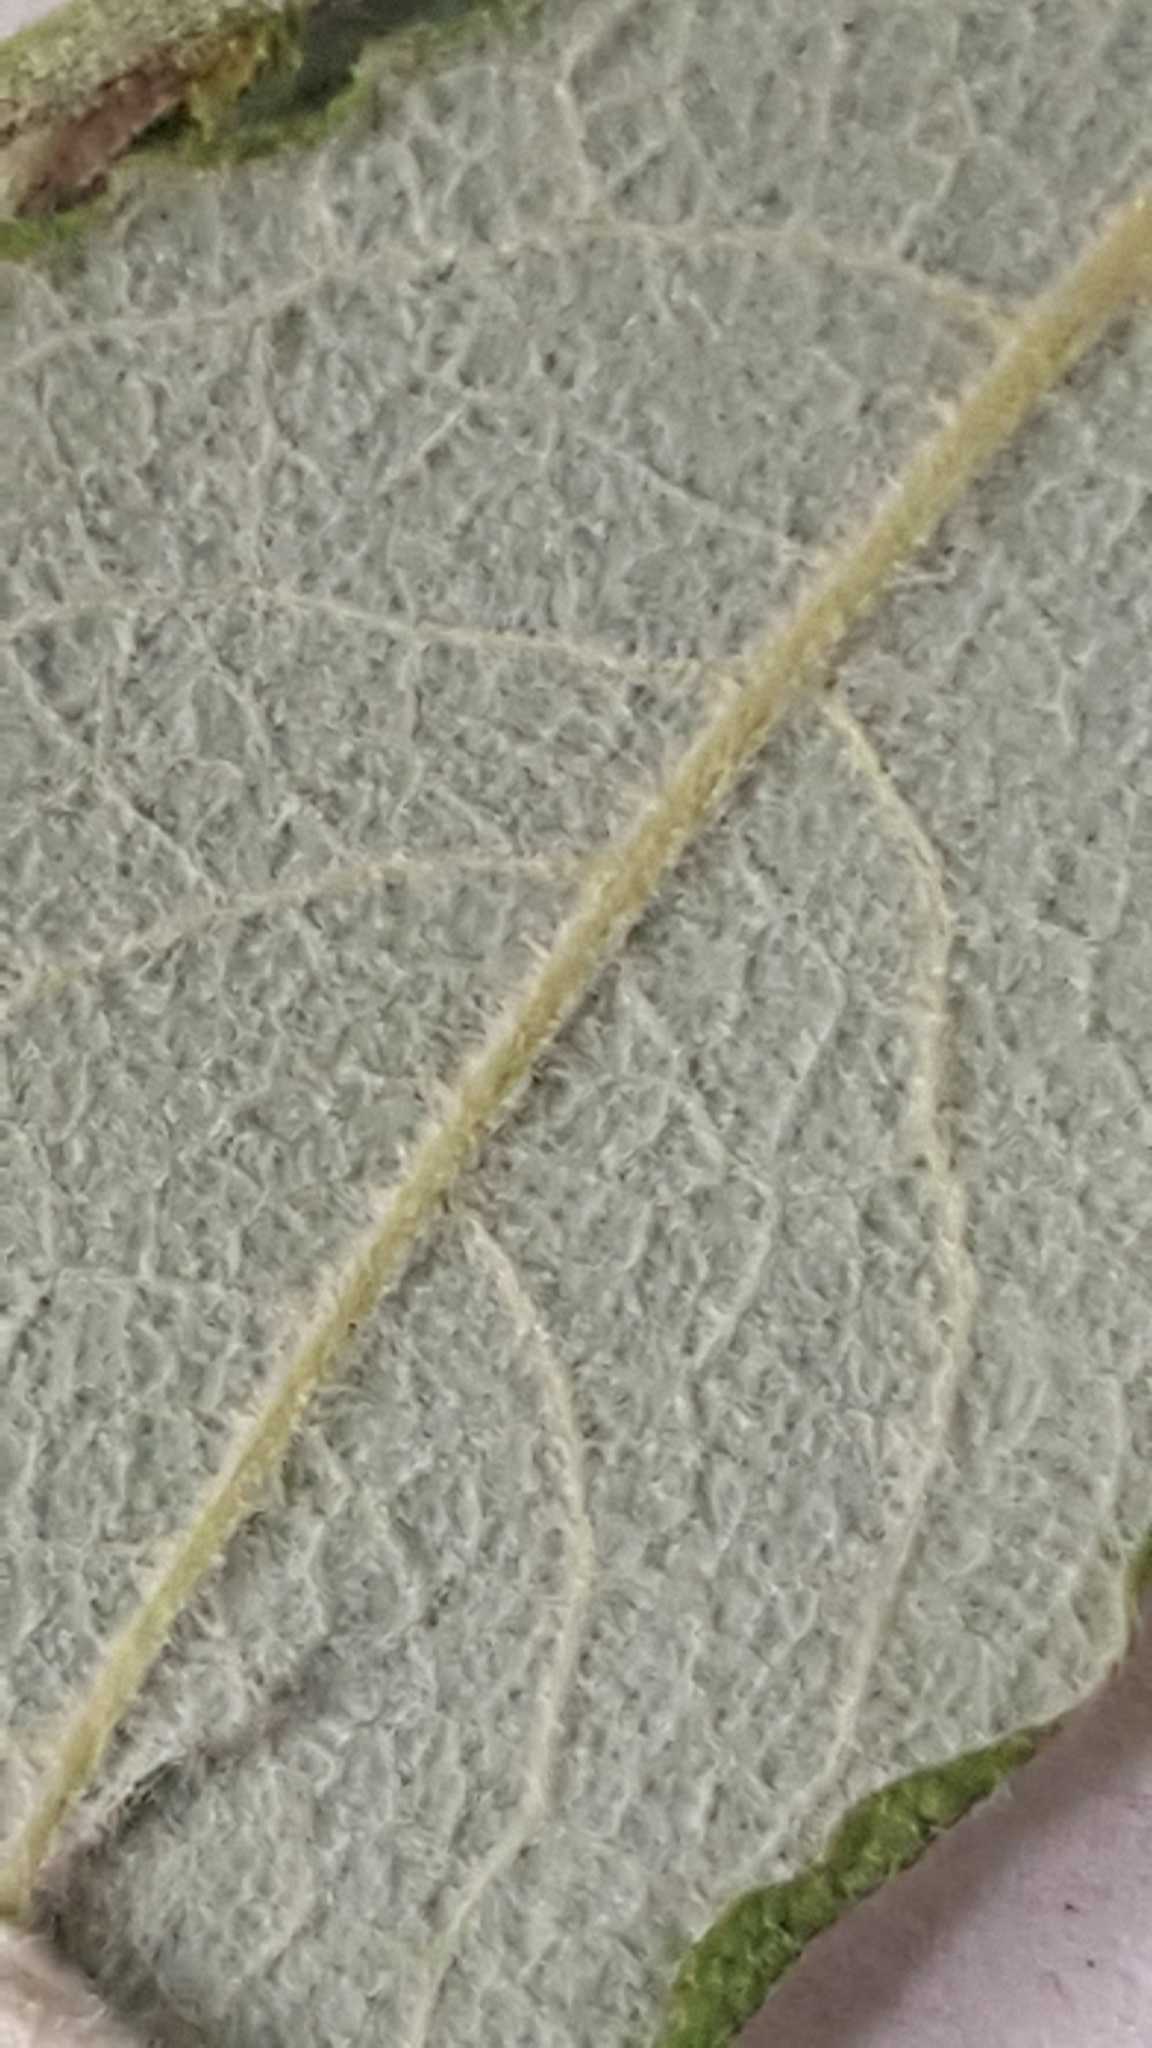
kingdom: Plantae
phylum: Tracheophyta
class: Magnoliopsida
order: Malpighiales
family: Salicaceae
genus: Salix
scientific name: Salix bebbiana
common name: Bebb's willow
